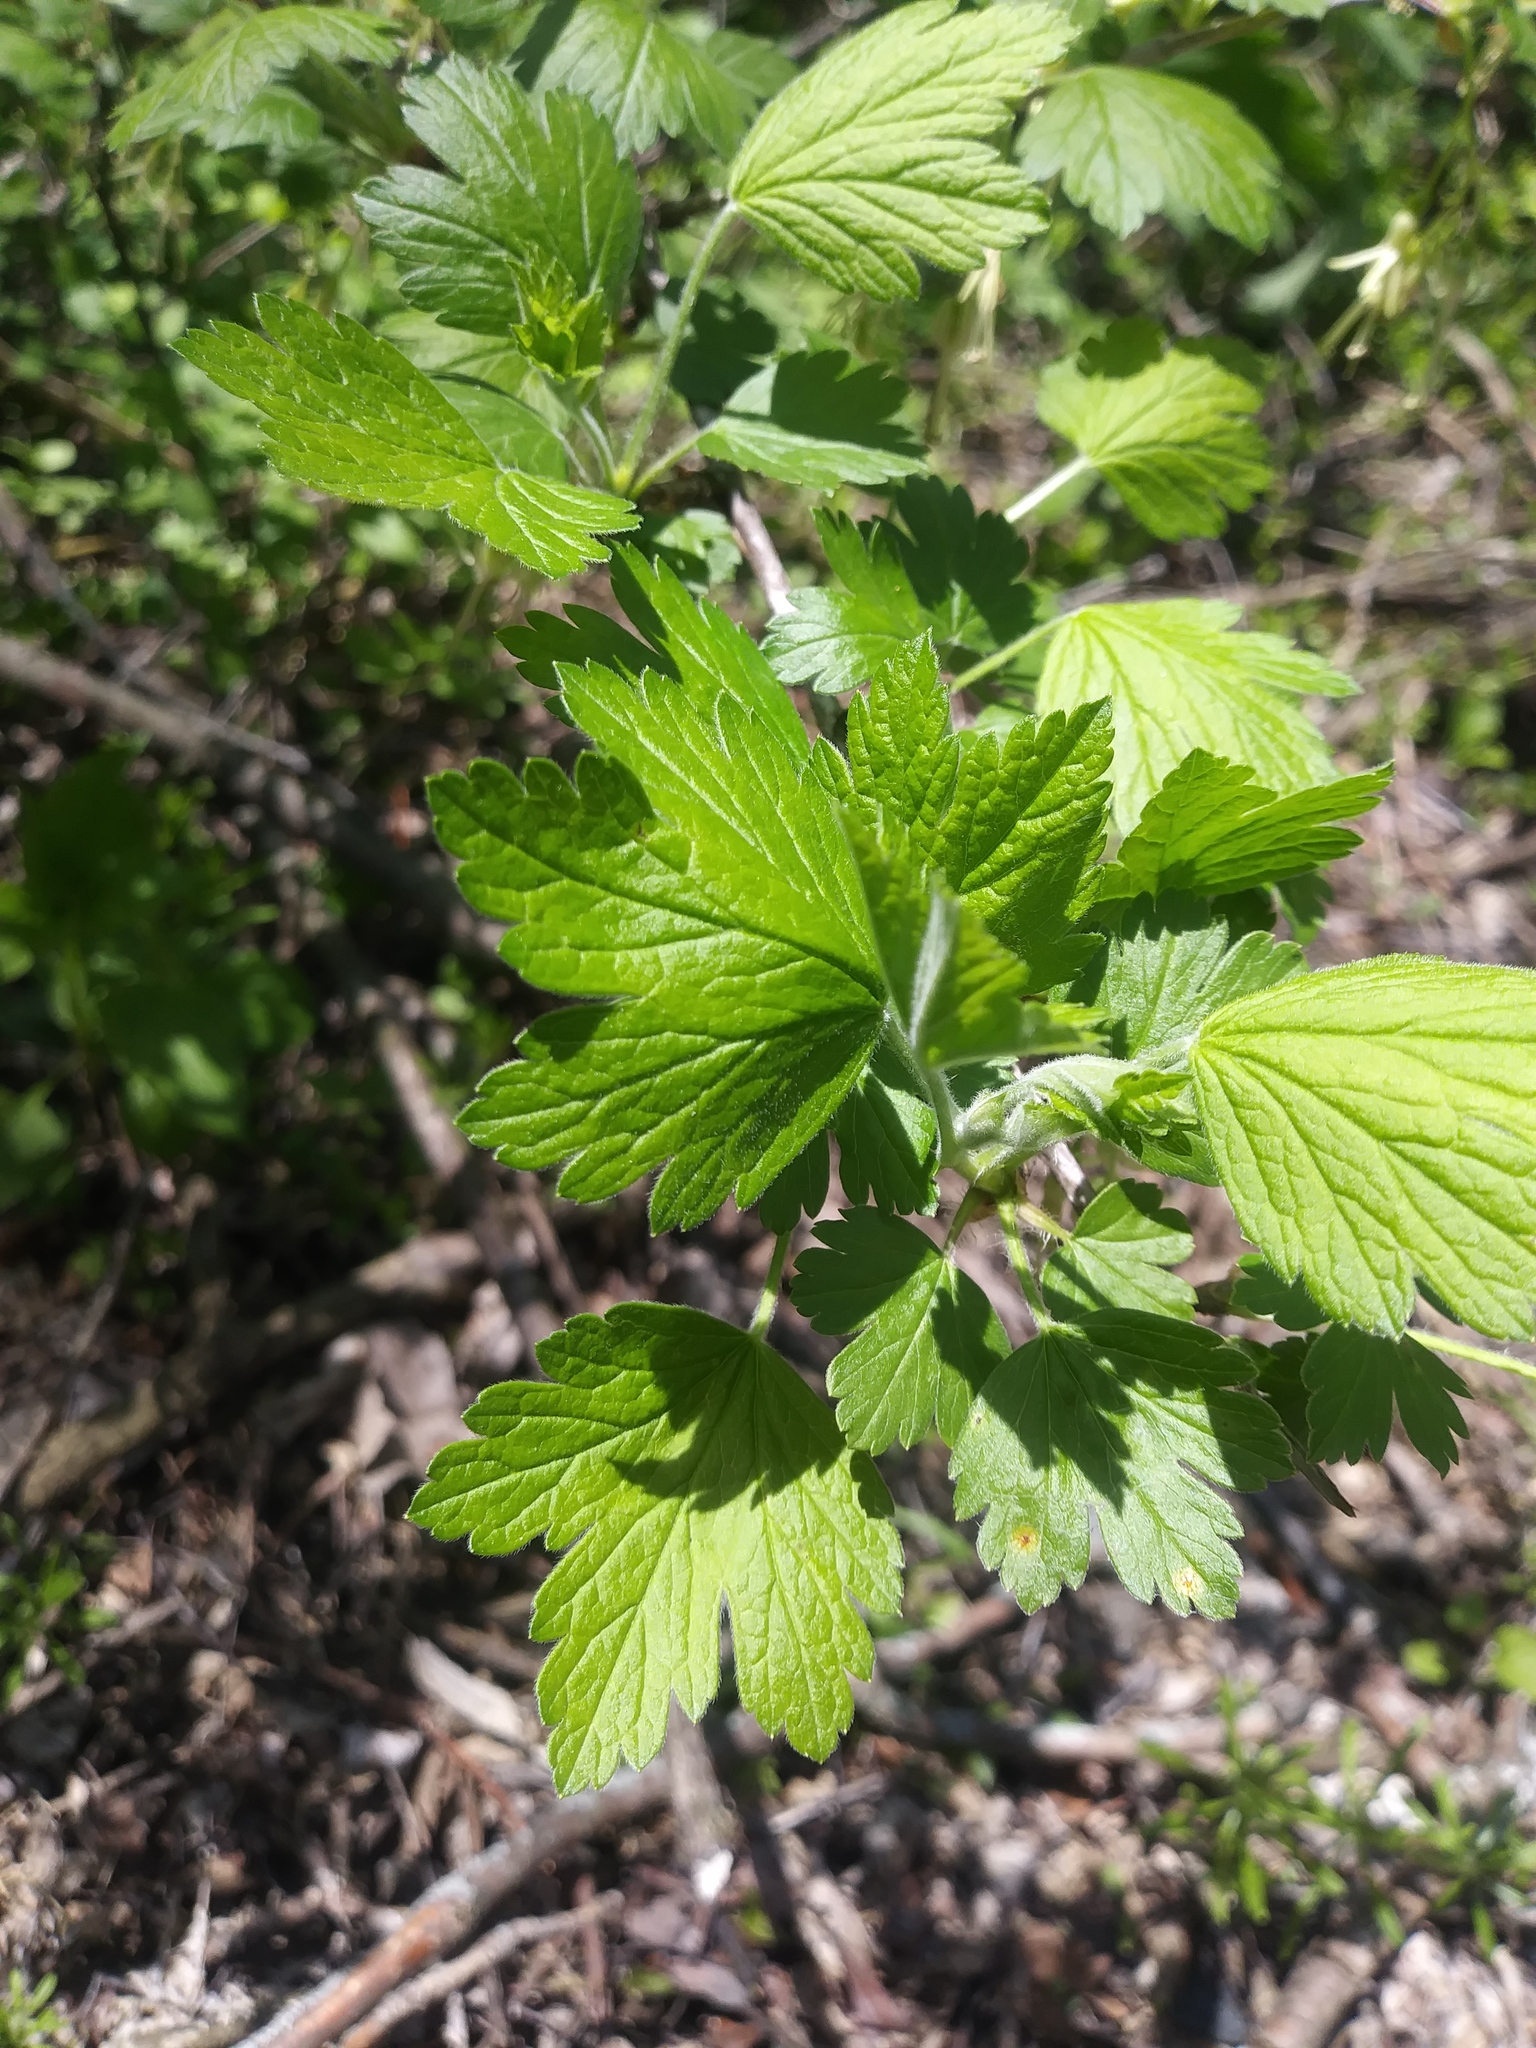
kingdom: Plantae
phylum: Tracheophyta
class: Magnoliopsida
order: Saxifragales
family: Grossulariaceae
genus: Ribes
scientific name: Ribes missouriense
